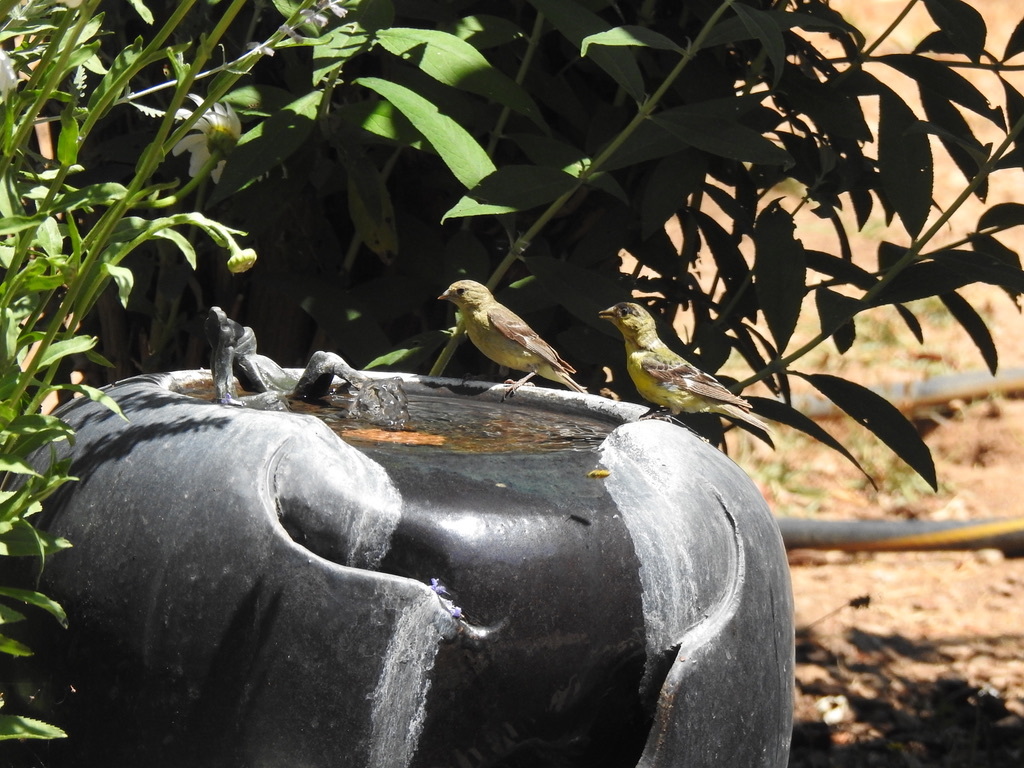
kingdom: Animalia
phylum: Chordata
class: Aves
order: Passeriformes
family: Fringillidae
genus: Spinus
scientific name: Spinus psaltria
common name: Lesser goldfinch
